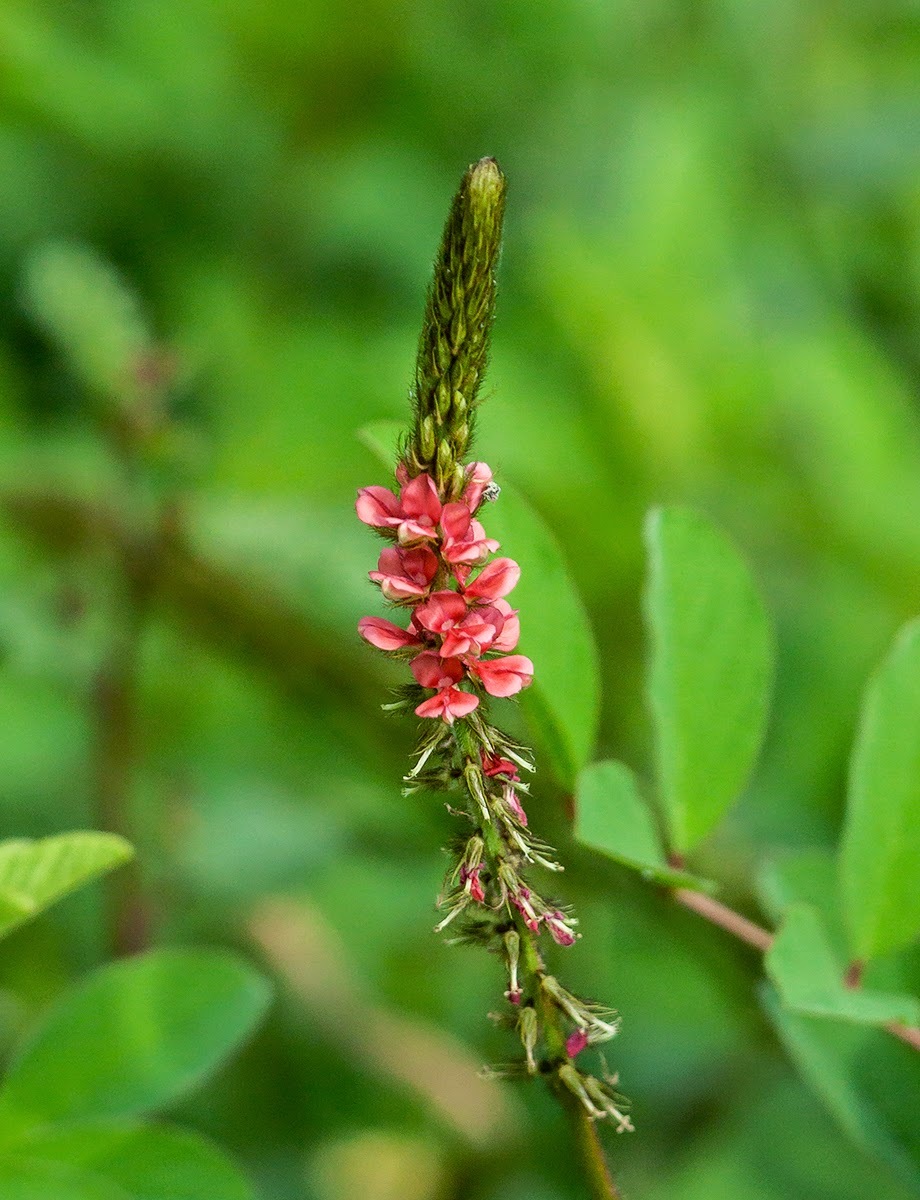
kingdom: Plantae
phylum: Tracheophyta
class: Magnoliopsida
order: Fabales
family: Fabaceae
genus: Indigofera
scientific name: Indigofera hirsuta
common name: Hairy indigo
